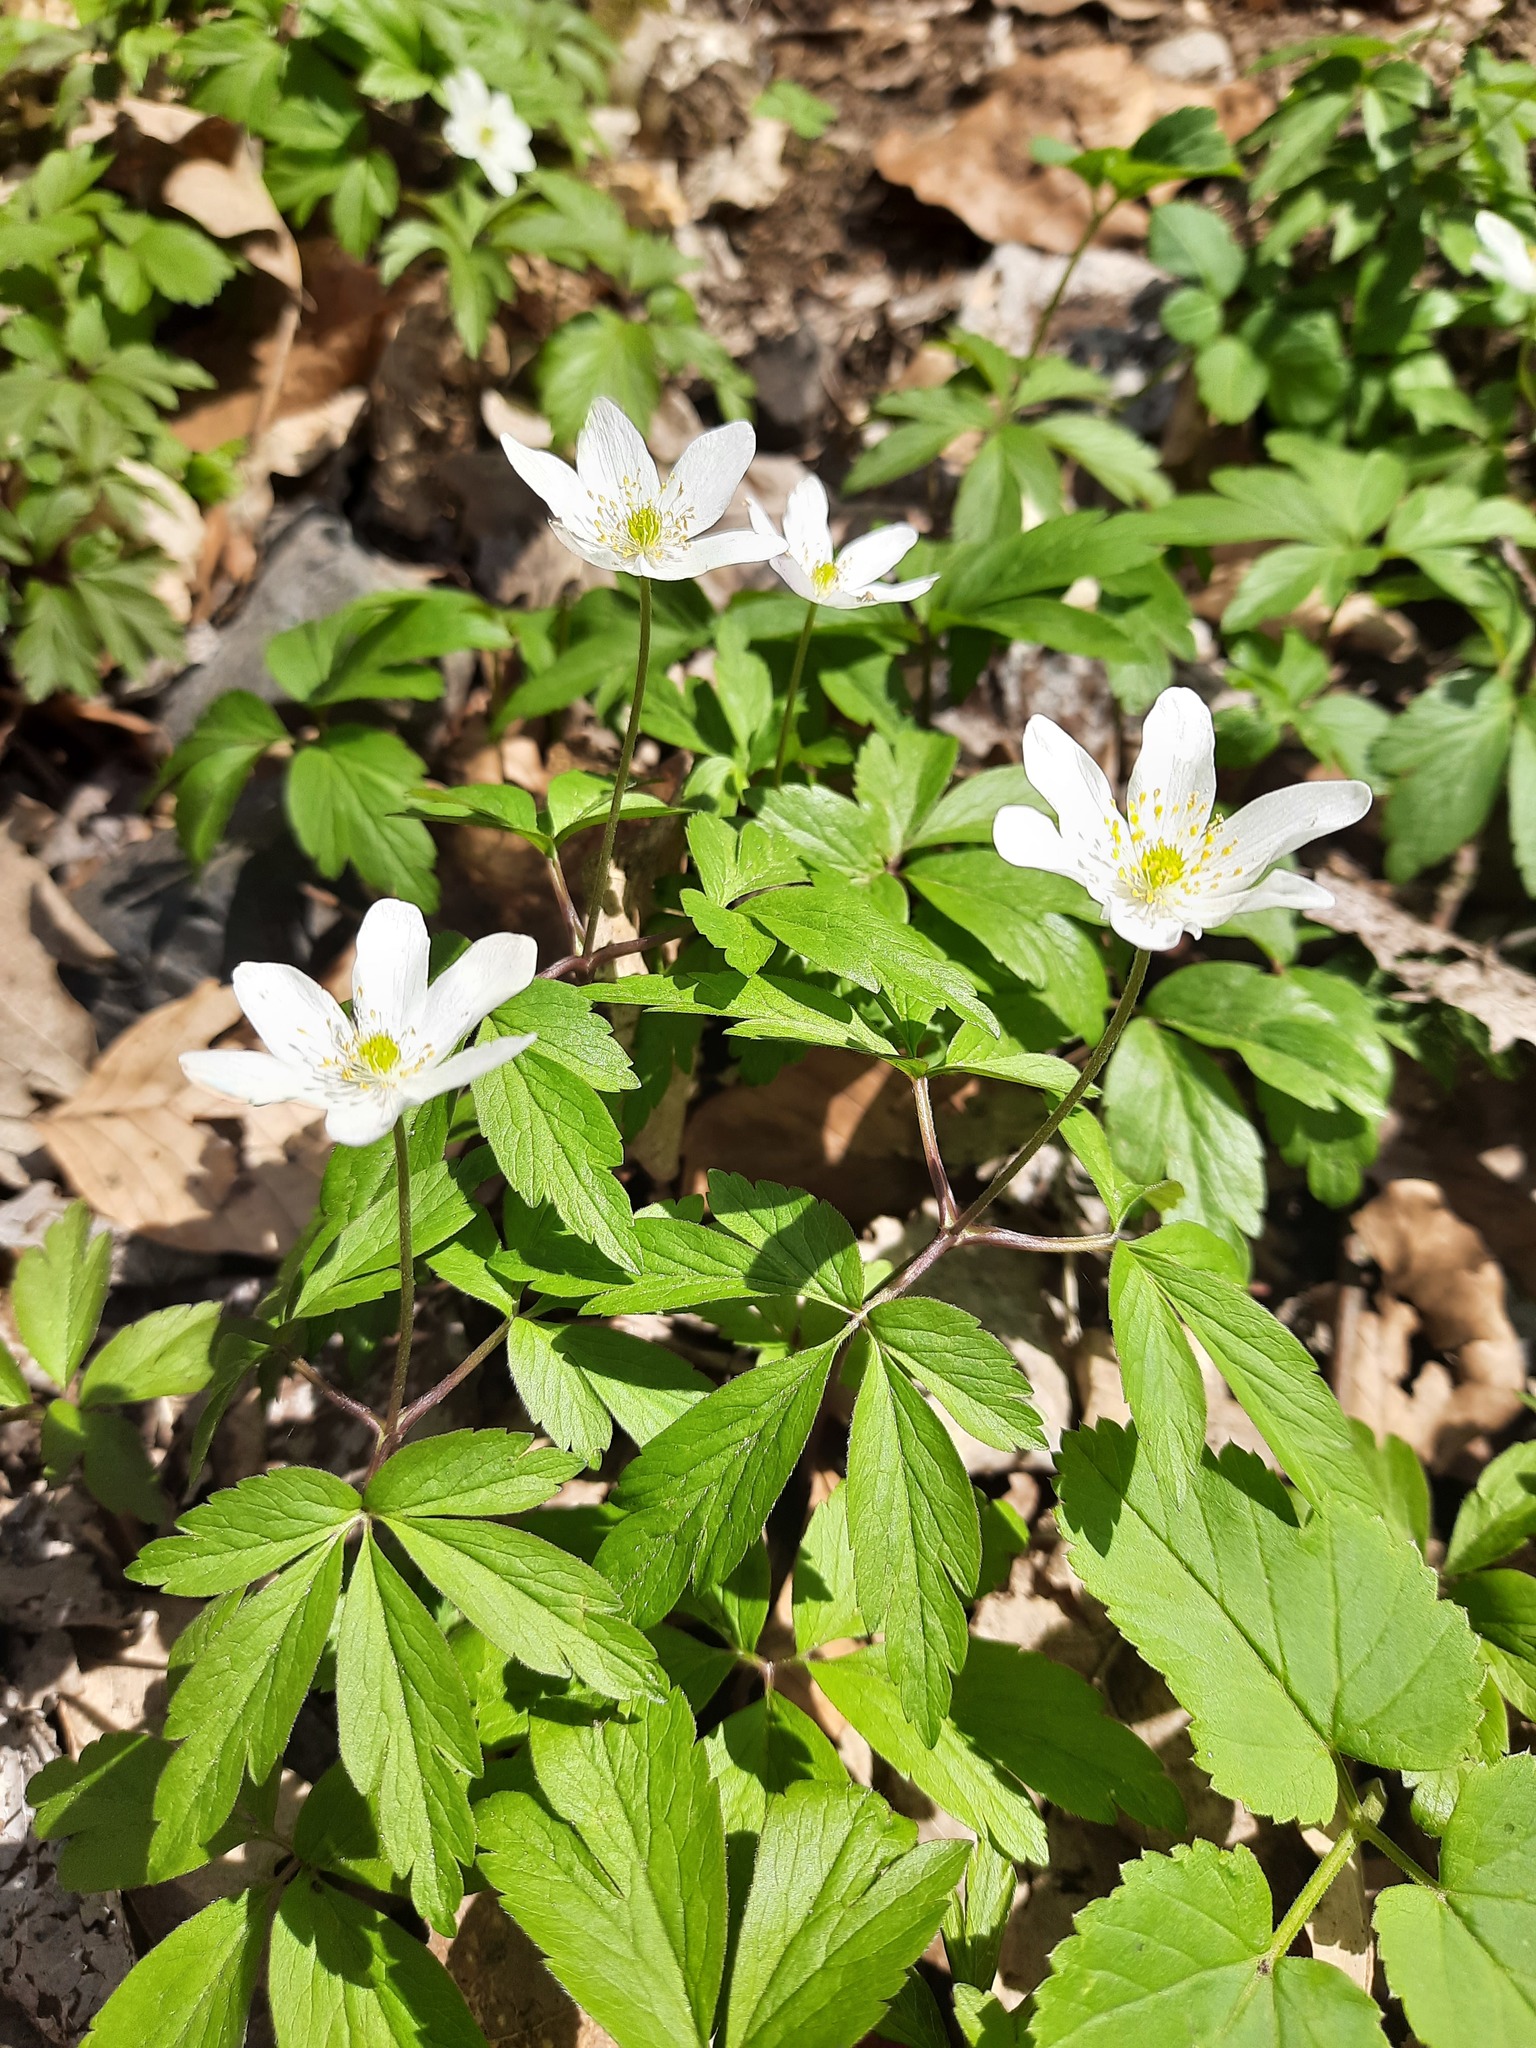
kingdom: Plantae
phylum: Tracheophyta
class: Magnoliopsida
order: Ranunculales
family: Ranunculaceae
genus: Anemone
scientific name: Anemone nemorosa
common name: Wood anemone
